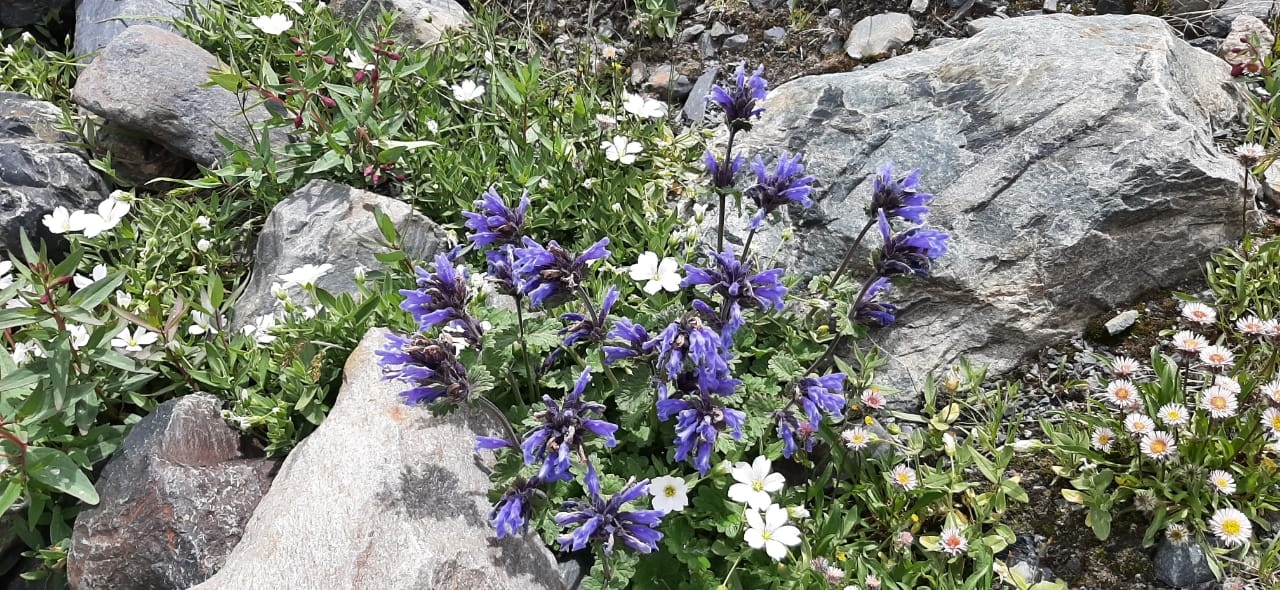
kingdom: Plantae
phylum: Tracheophyta
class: Magnoliopsida
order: Lamiales
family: Lamiaceae
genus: Dracocephalum
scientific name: Dracocephalum imberbe
